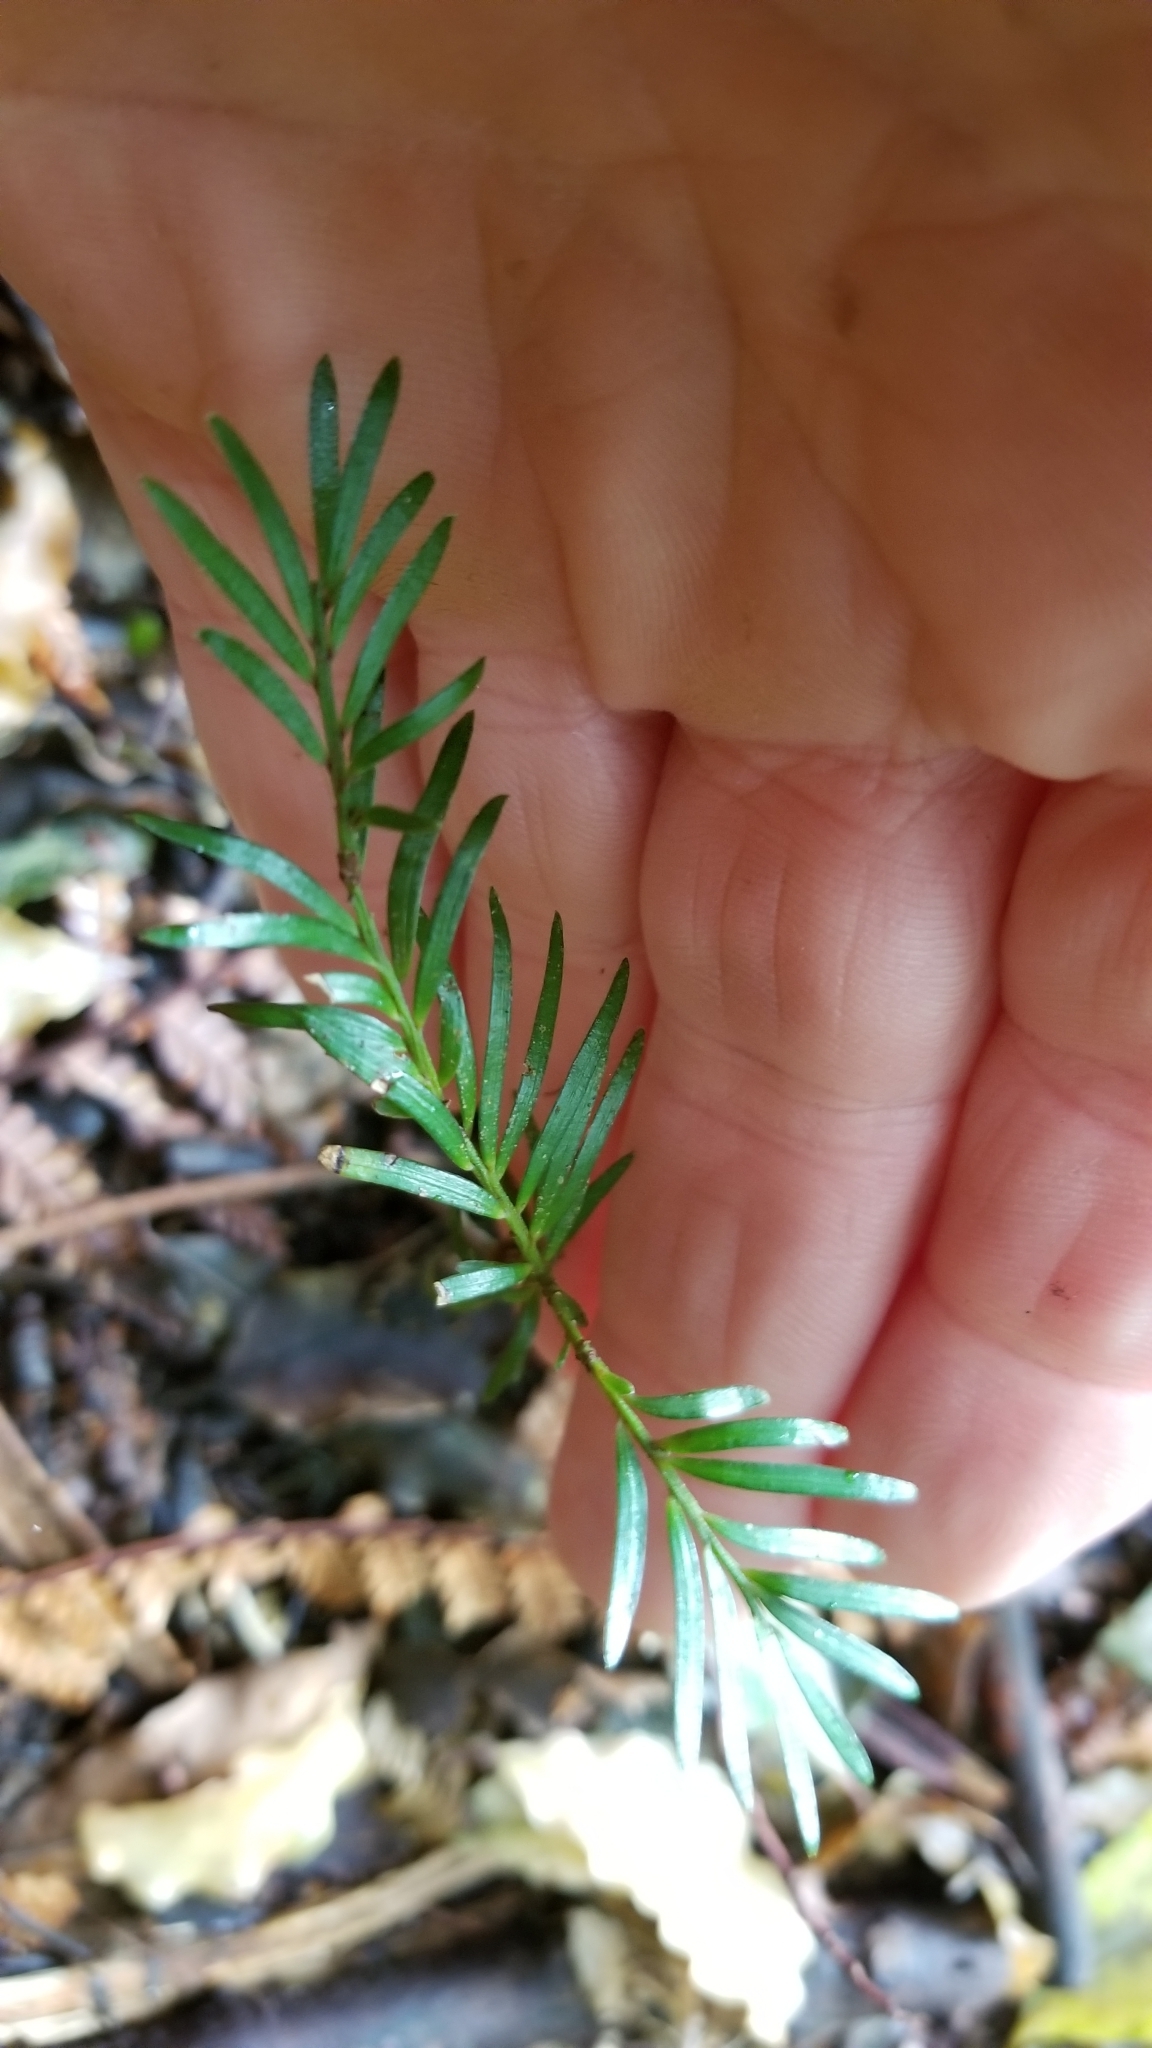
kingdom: Plantae
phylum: Tracheophyta
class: Pinopsida
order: Pinales
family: Podocarpaceae
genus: Prumnopitys
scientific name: Prumnopitys ferruginea
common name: Brown pine
